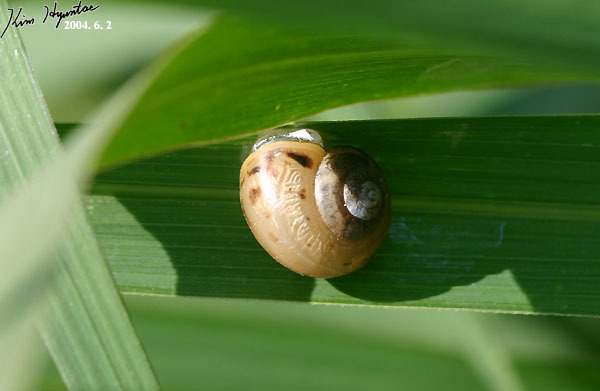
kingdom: Animalia
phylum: Mollusca
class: Gastropoda
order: Stylommatophora
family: Camaenidae
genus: Acusta
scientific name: Acusta redfieldi
